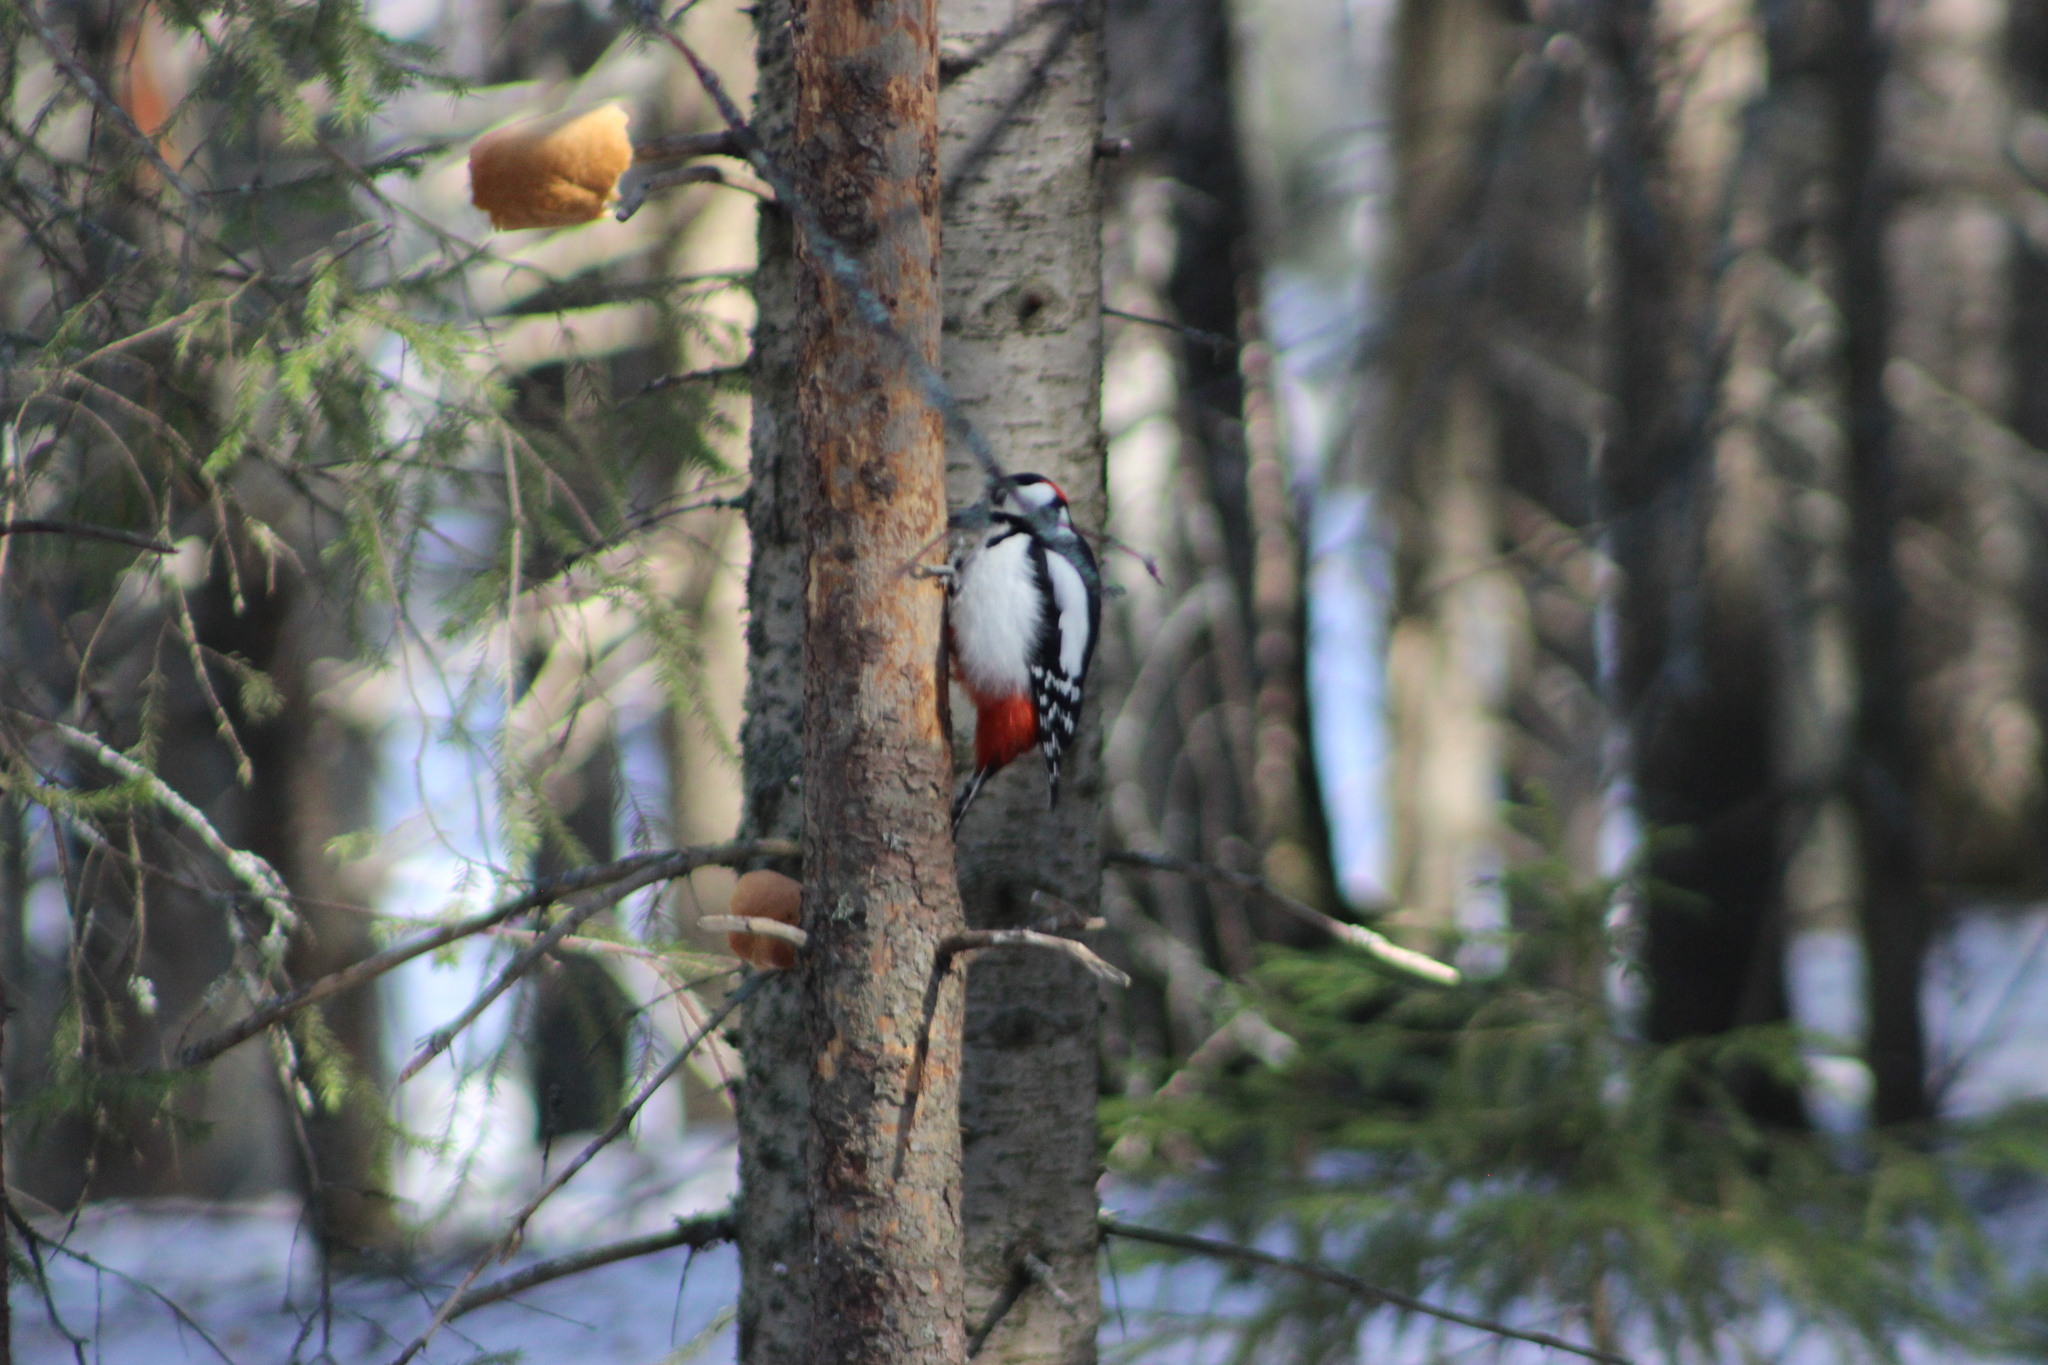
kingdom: Animalia
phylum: Chordata
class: Aves
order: Piciformes
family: Picidae
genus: Dendrocopos
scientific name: Dendrocopos major
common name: Great spotted woodpecker
